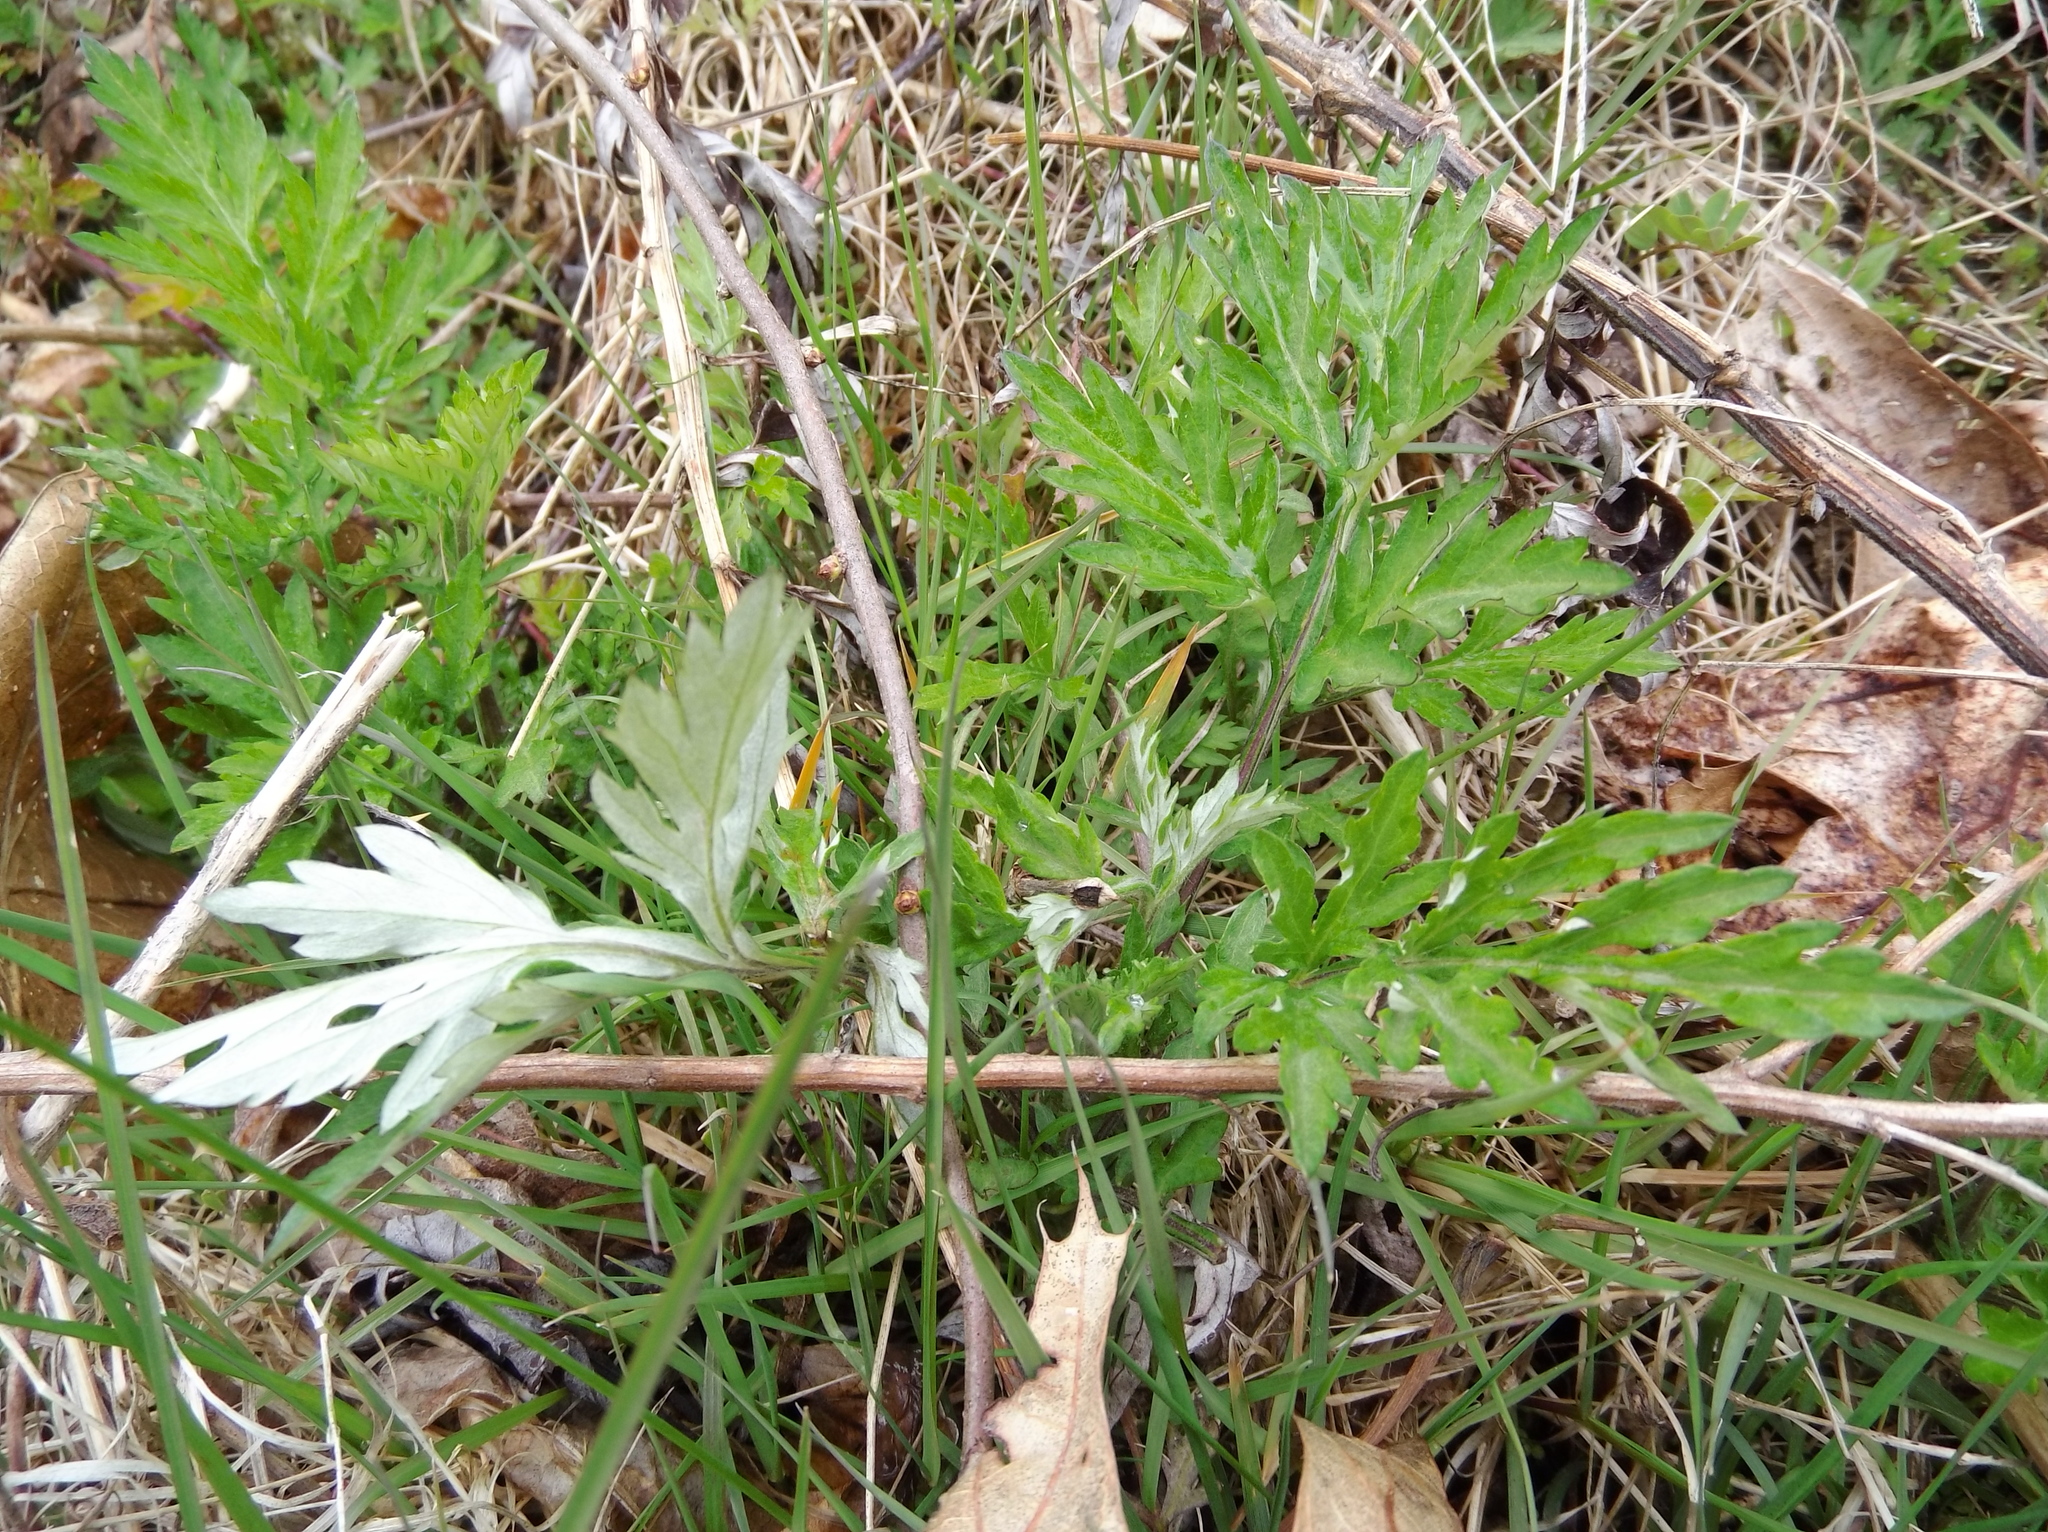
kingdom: Plantae
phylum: Tracheophyta
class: Magnoliopsida
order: Asterales
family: Asteraceae
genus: Artemisia
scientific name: Artemisia vulgaris
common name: Mugwort
